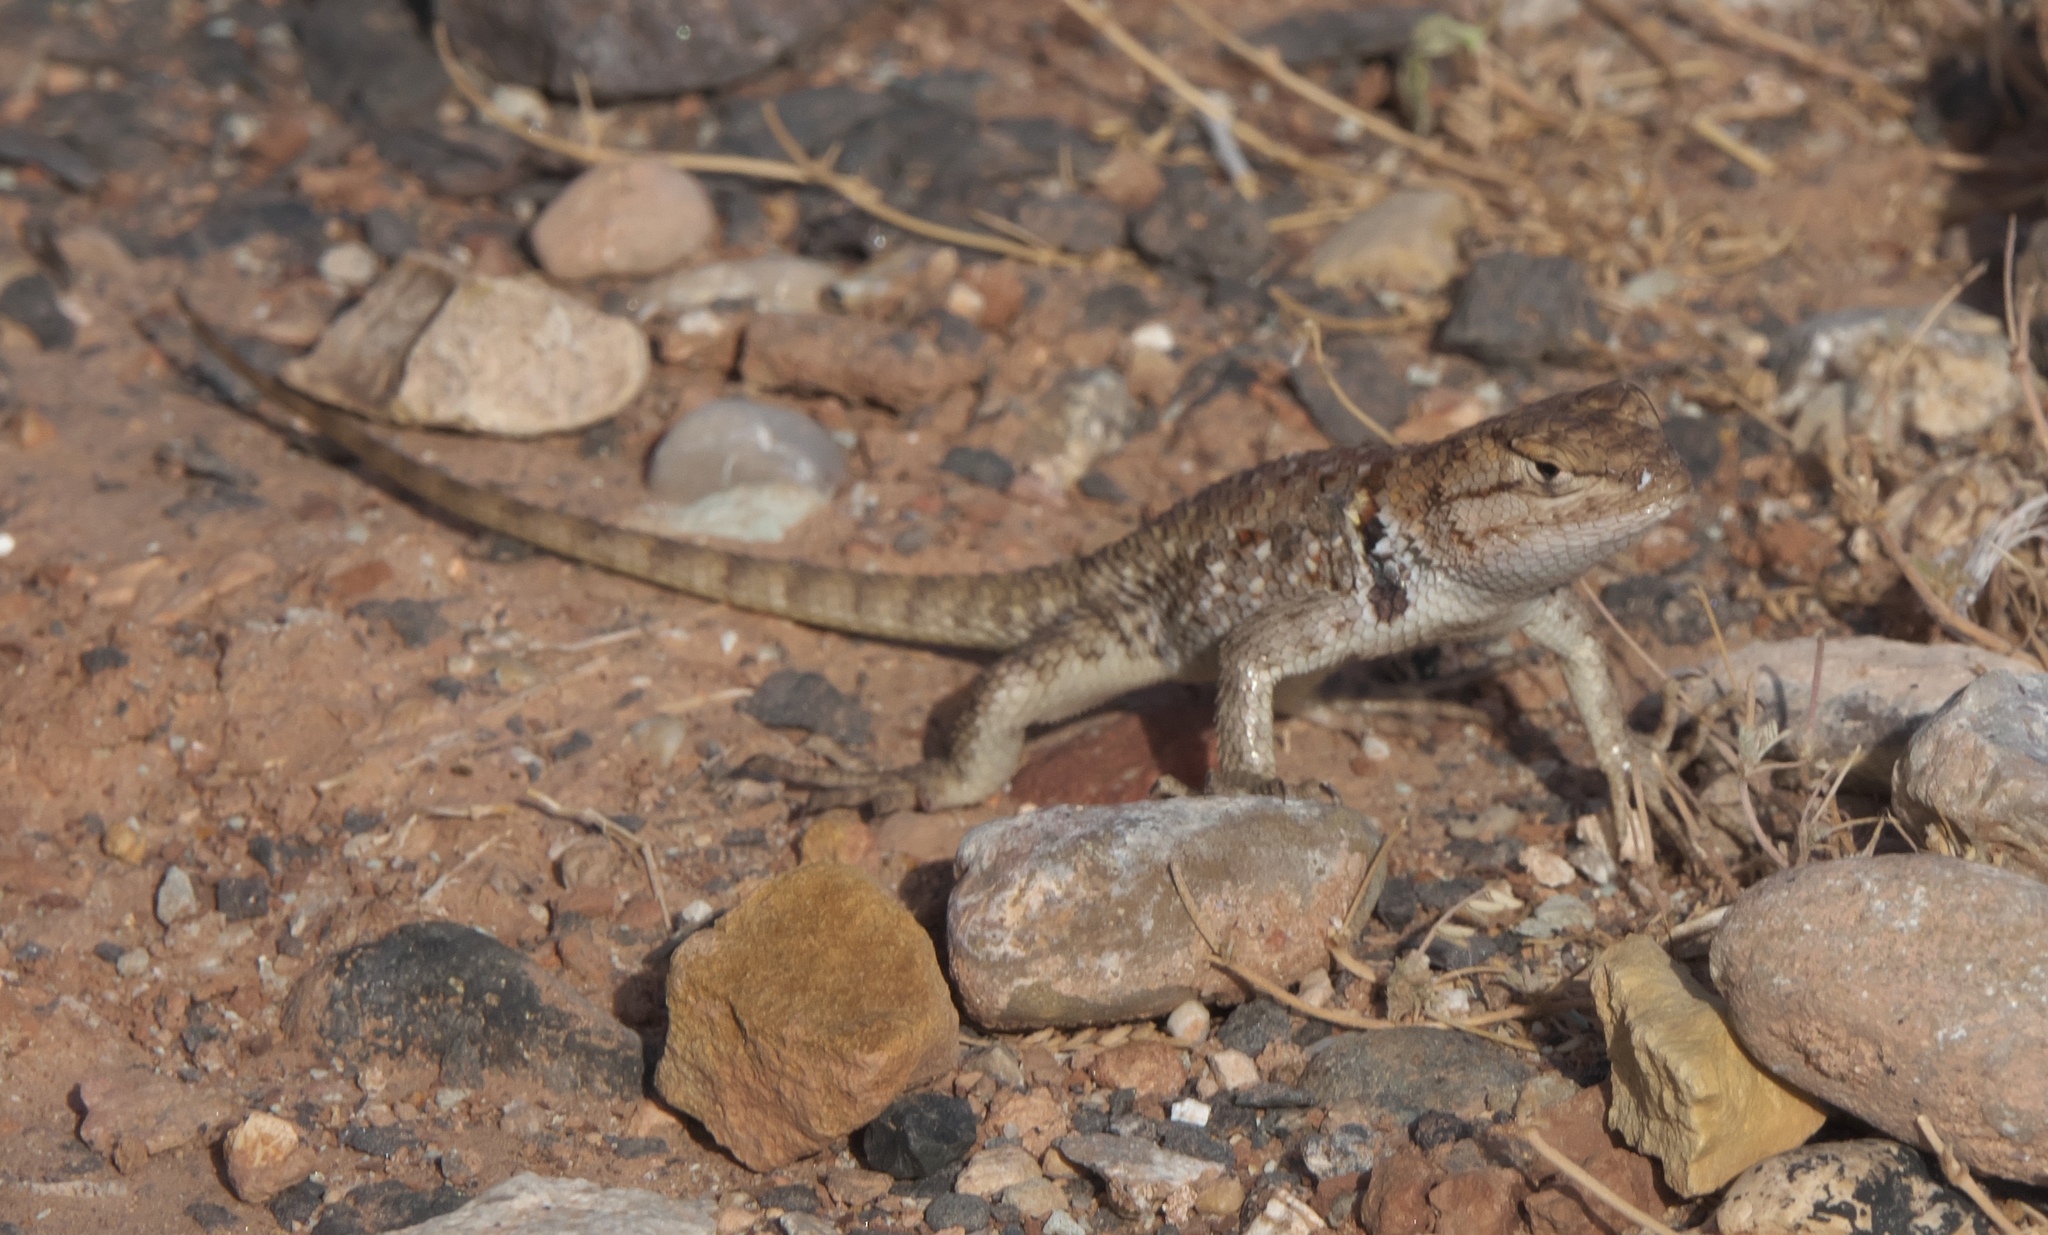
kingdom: Animalia
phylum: Chordata
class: Squamata
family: Phrynosomatidae
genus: Sceloporus
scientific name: Sceloporus uniformis
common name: Yellow-backed spiny lizard
